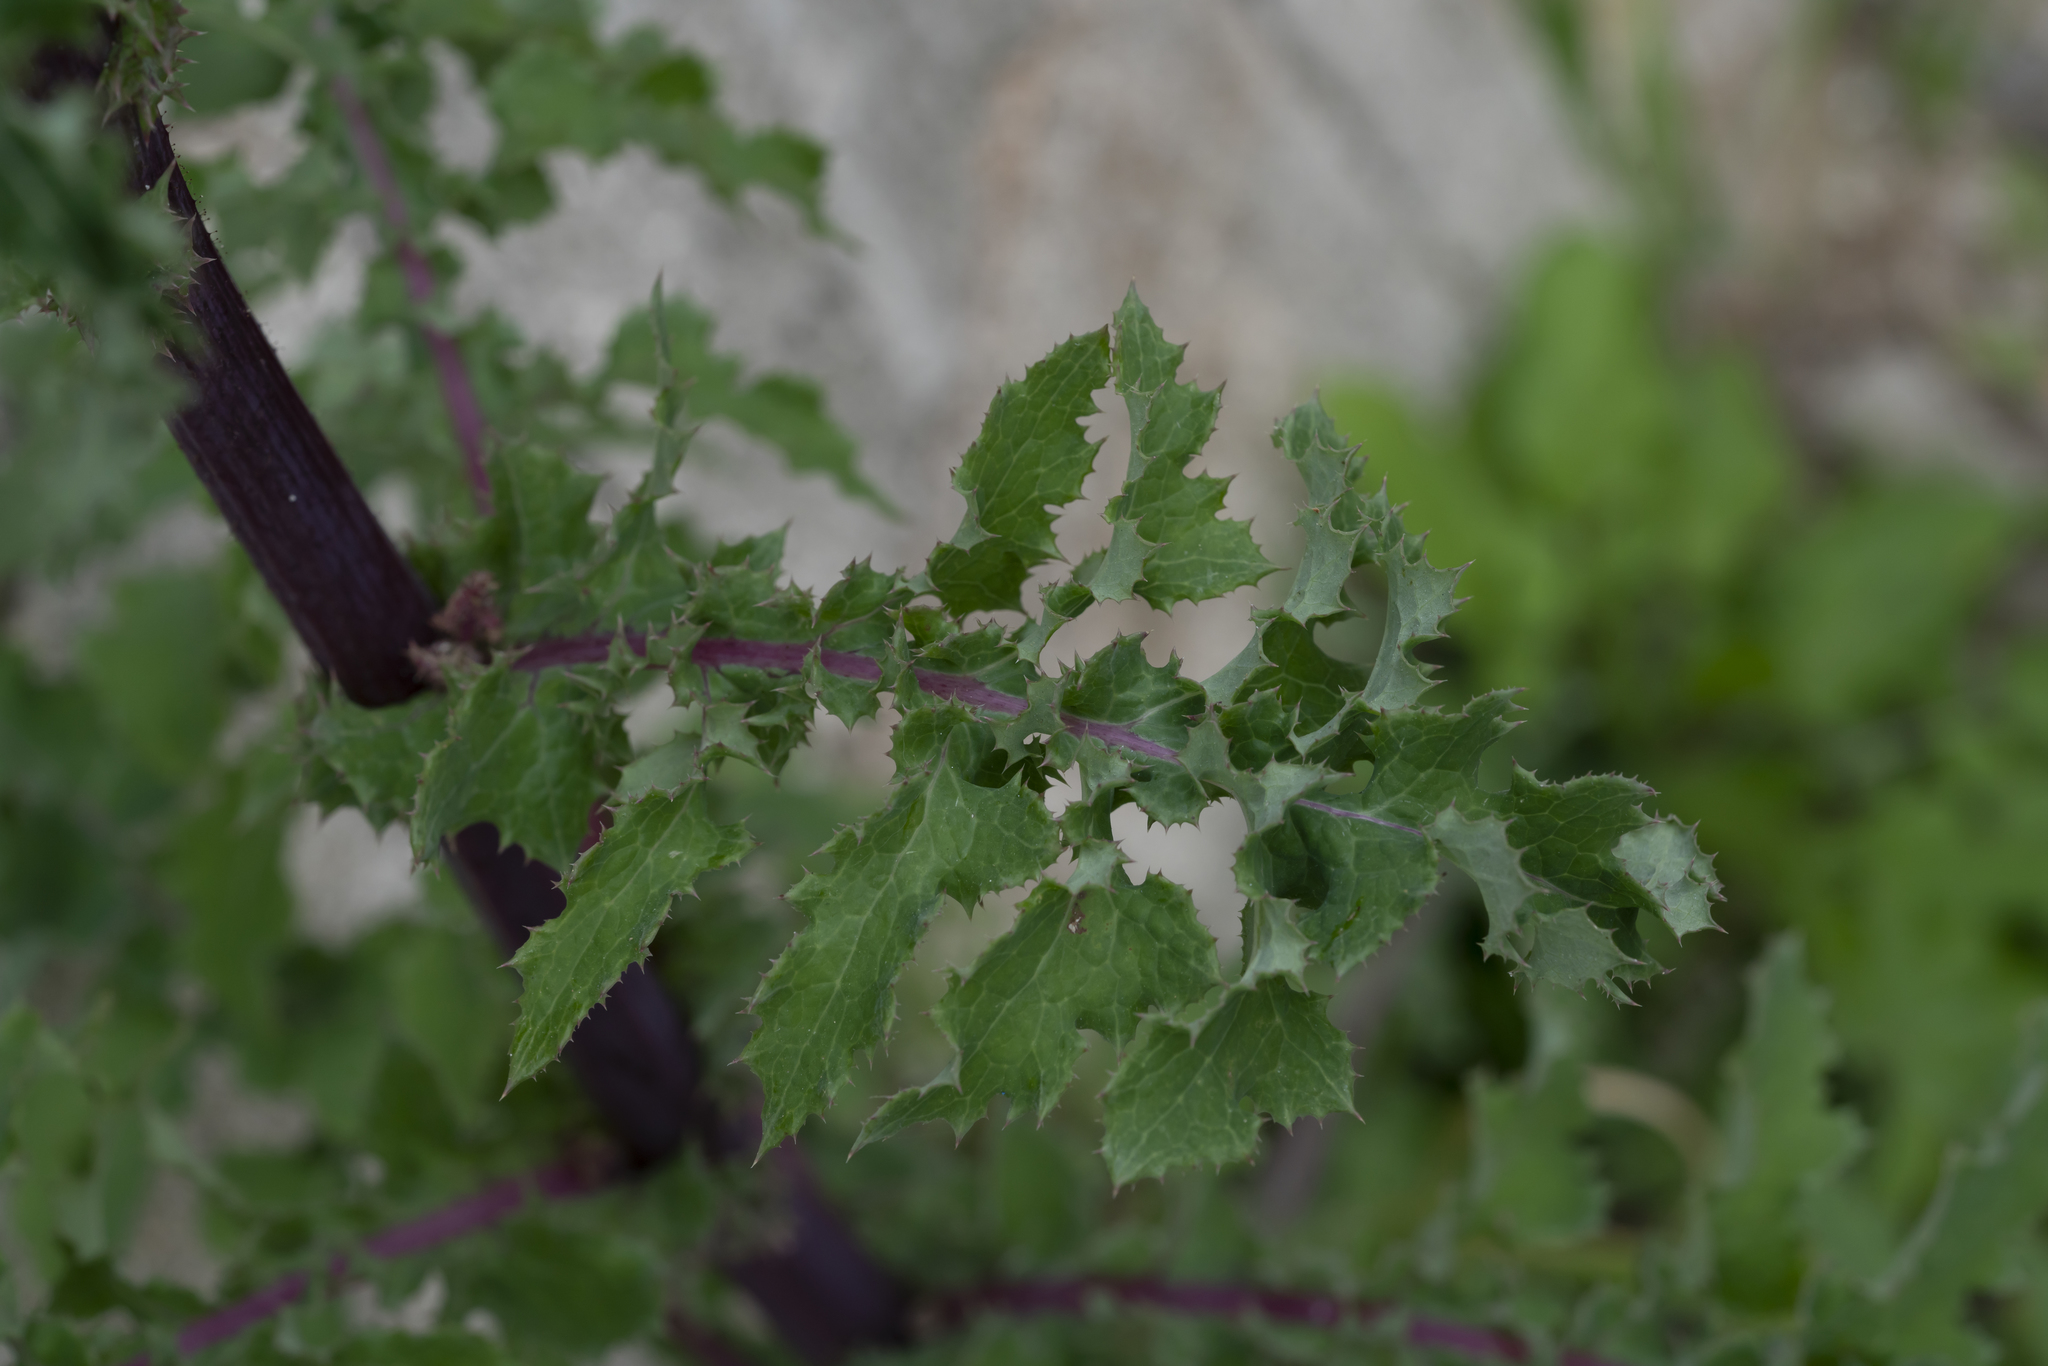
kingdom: Plantae
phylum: Tracheophyta
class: Magnoliopsida
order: Asterales
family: Asteraceae
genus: Sonchus
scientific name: Sonchus asper
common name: Prickly sow-thistle
